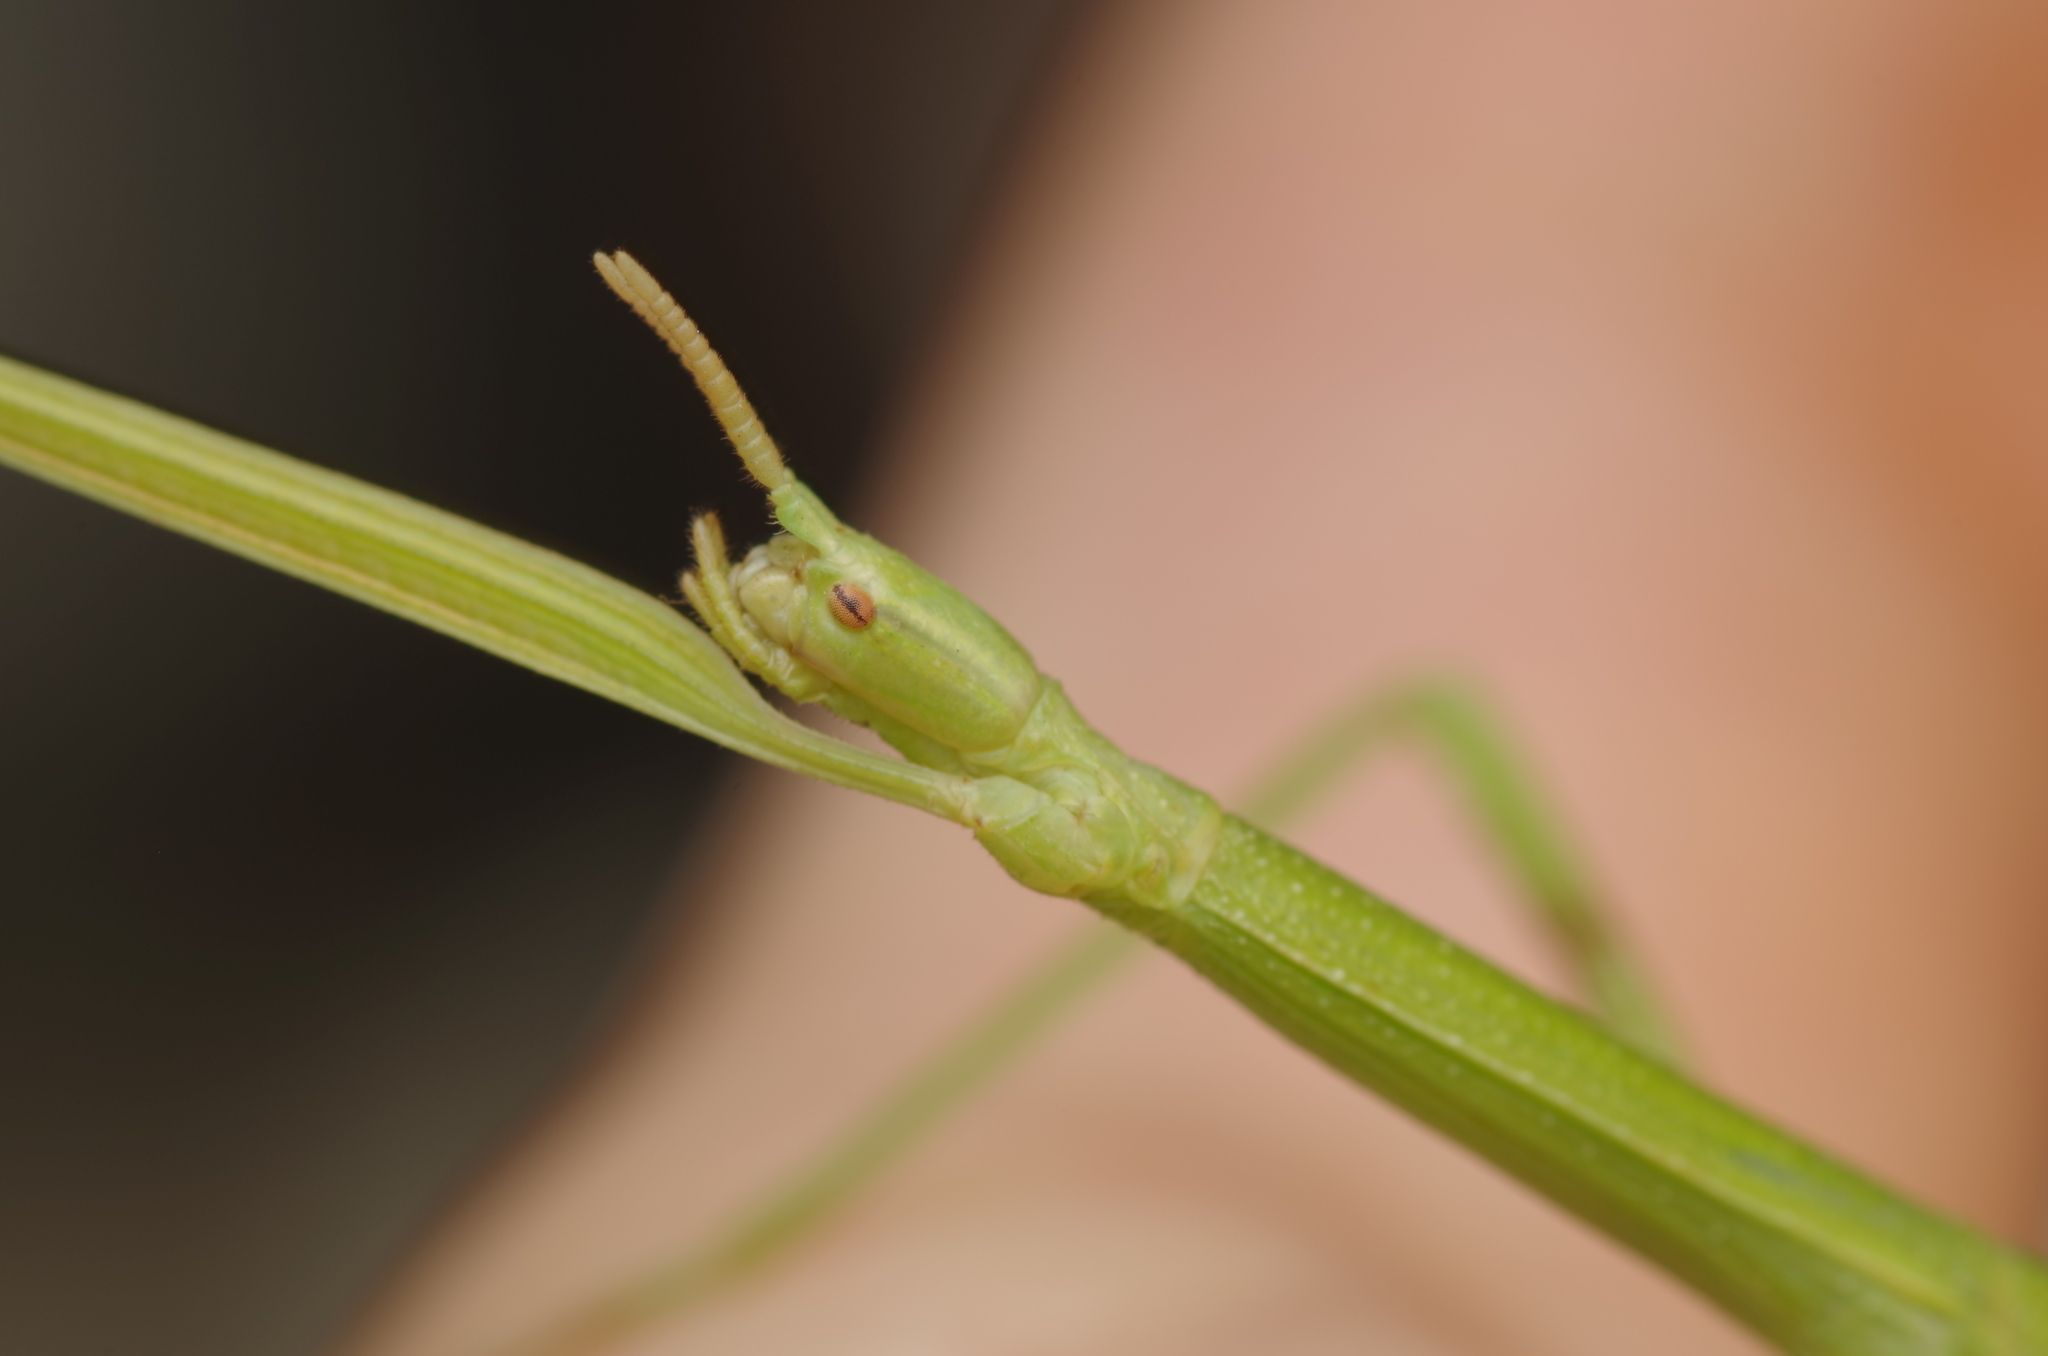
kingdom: Animalia
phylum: Arthropoda
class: Insecta
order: Phasmida
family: Bacillidae
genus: Clonopsis
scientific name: Clonopsis gallica
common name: French stick insect
